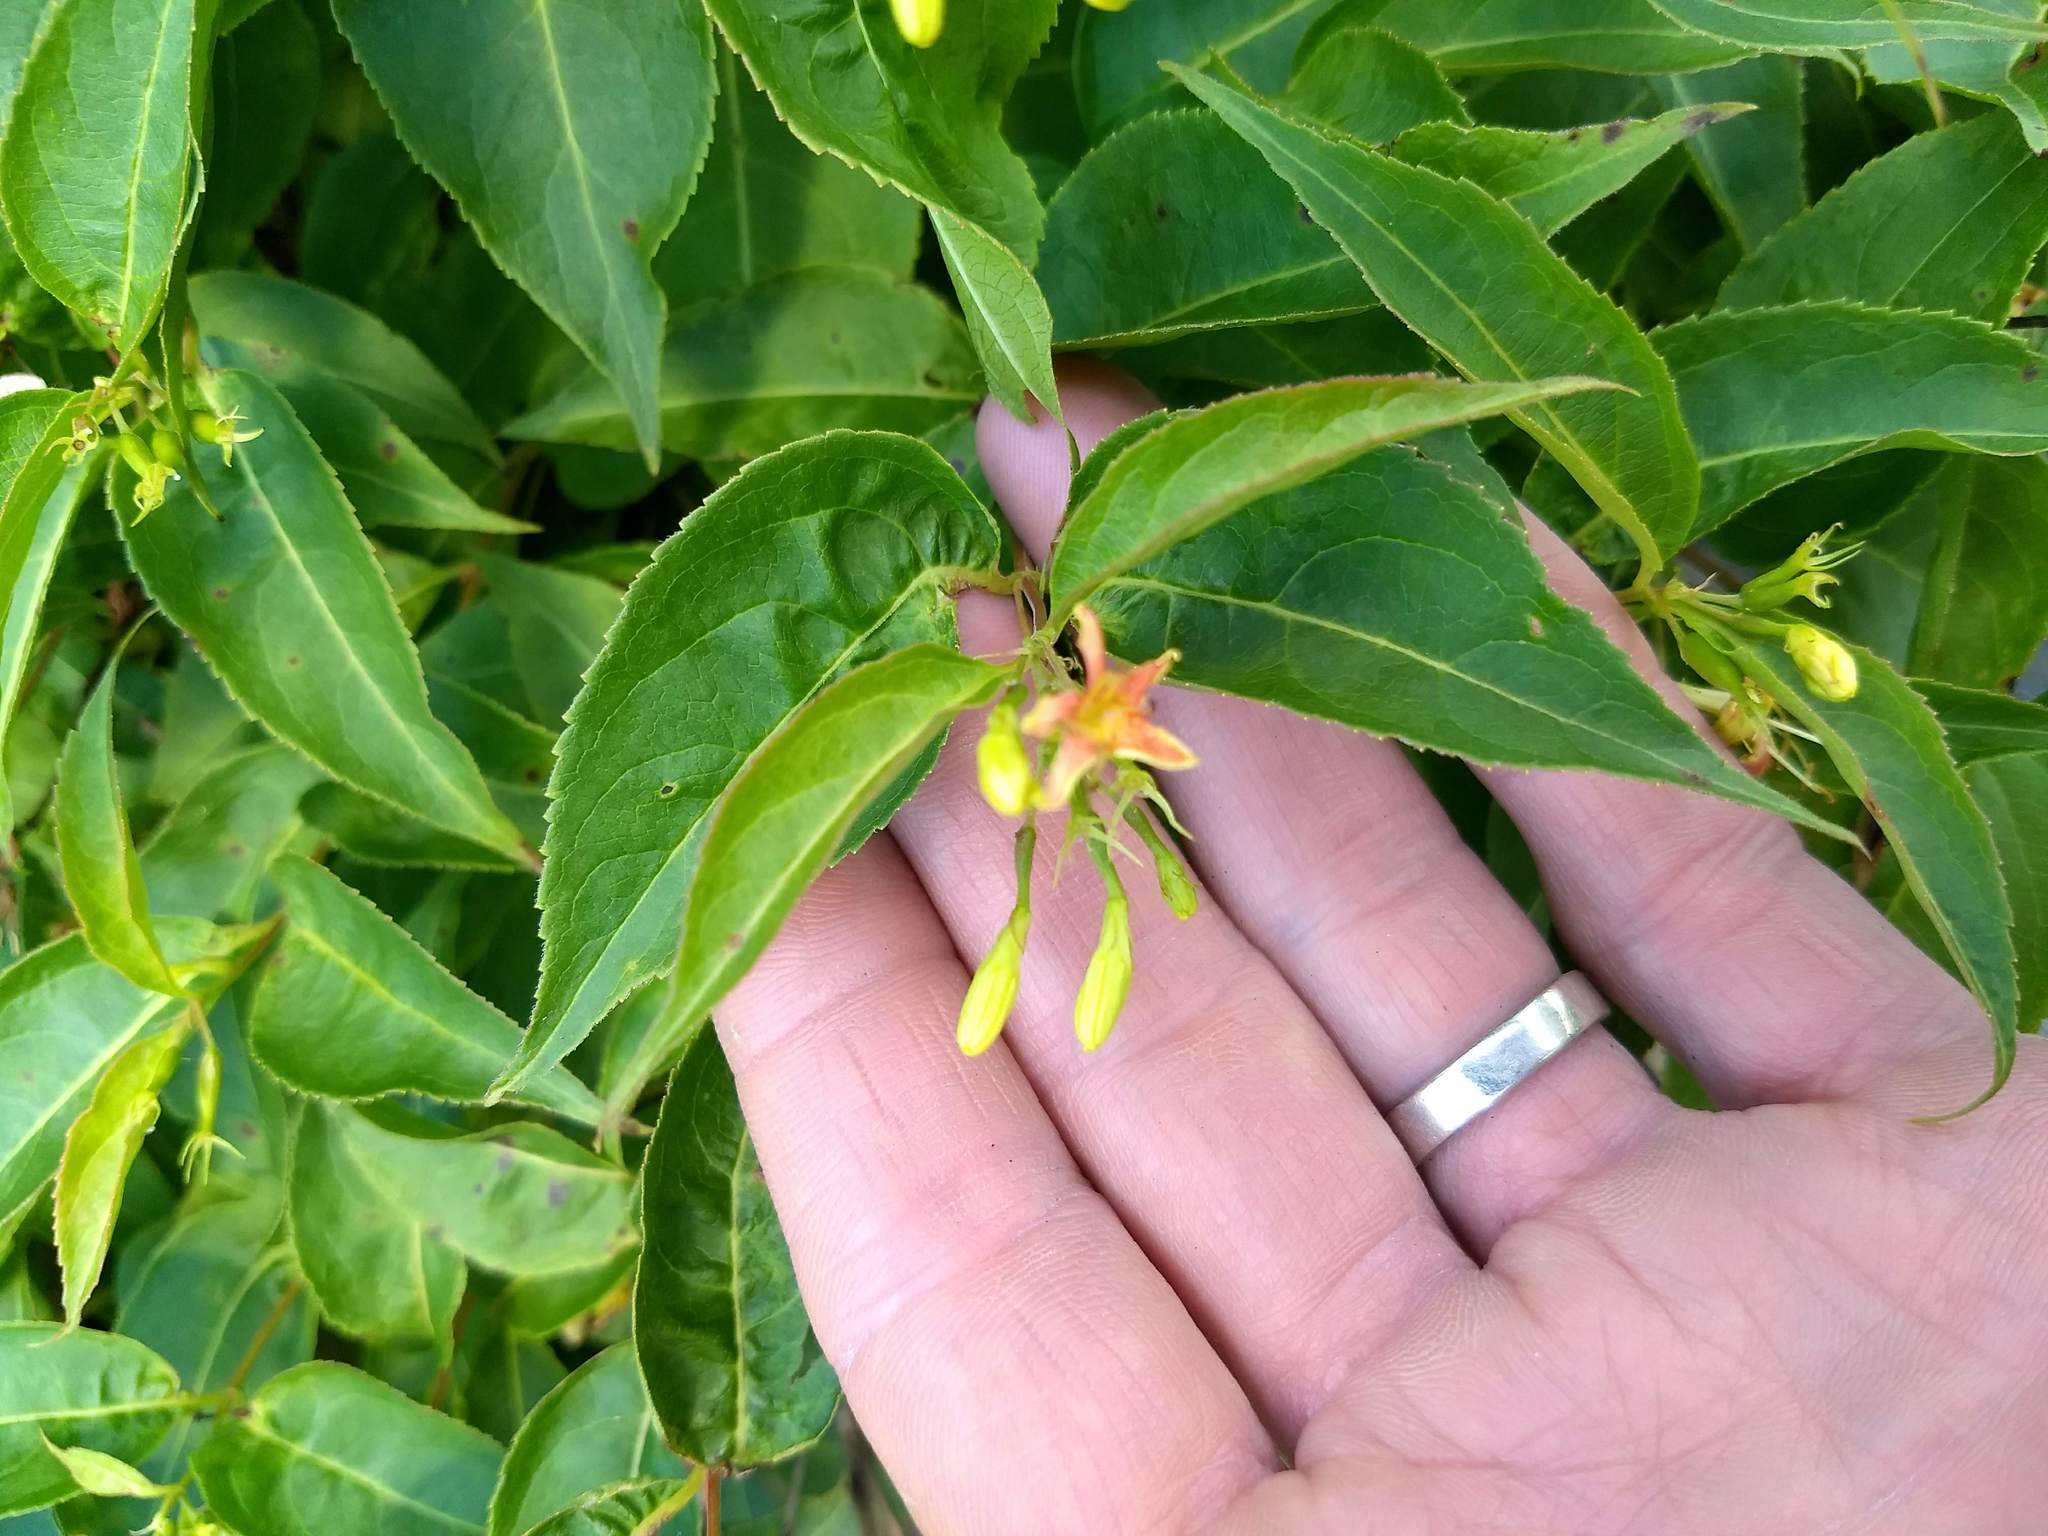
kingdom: Plantae
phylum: Tracheophyta
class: Magnoliopsida
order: Dipsacales
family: Caprifoliaceae
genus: Diervilla
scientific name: Diervilla lonicera
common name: Bush-honeysuckle
